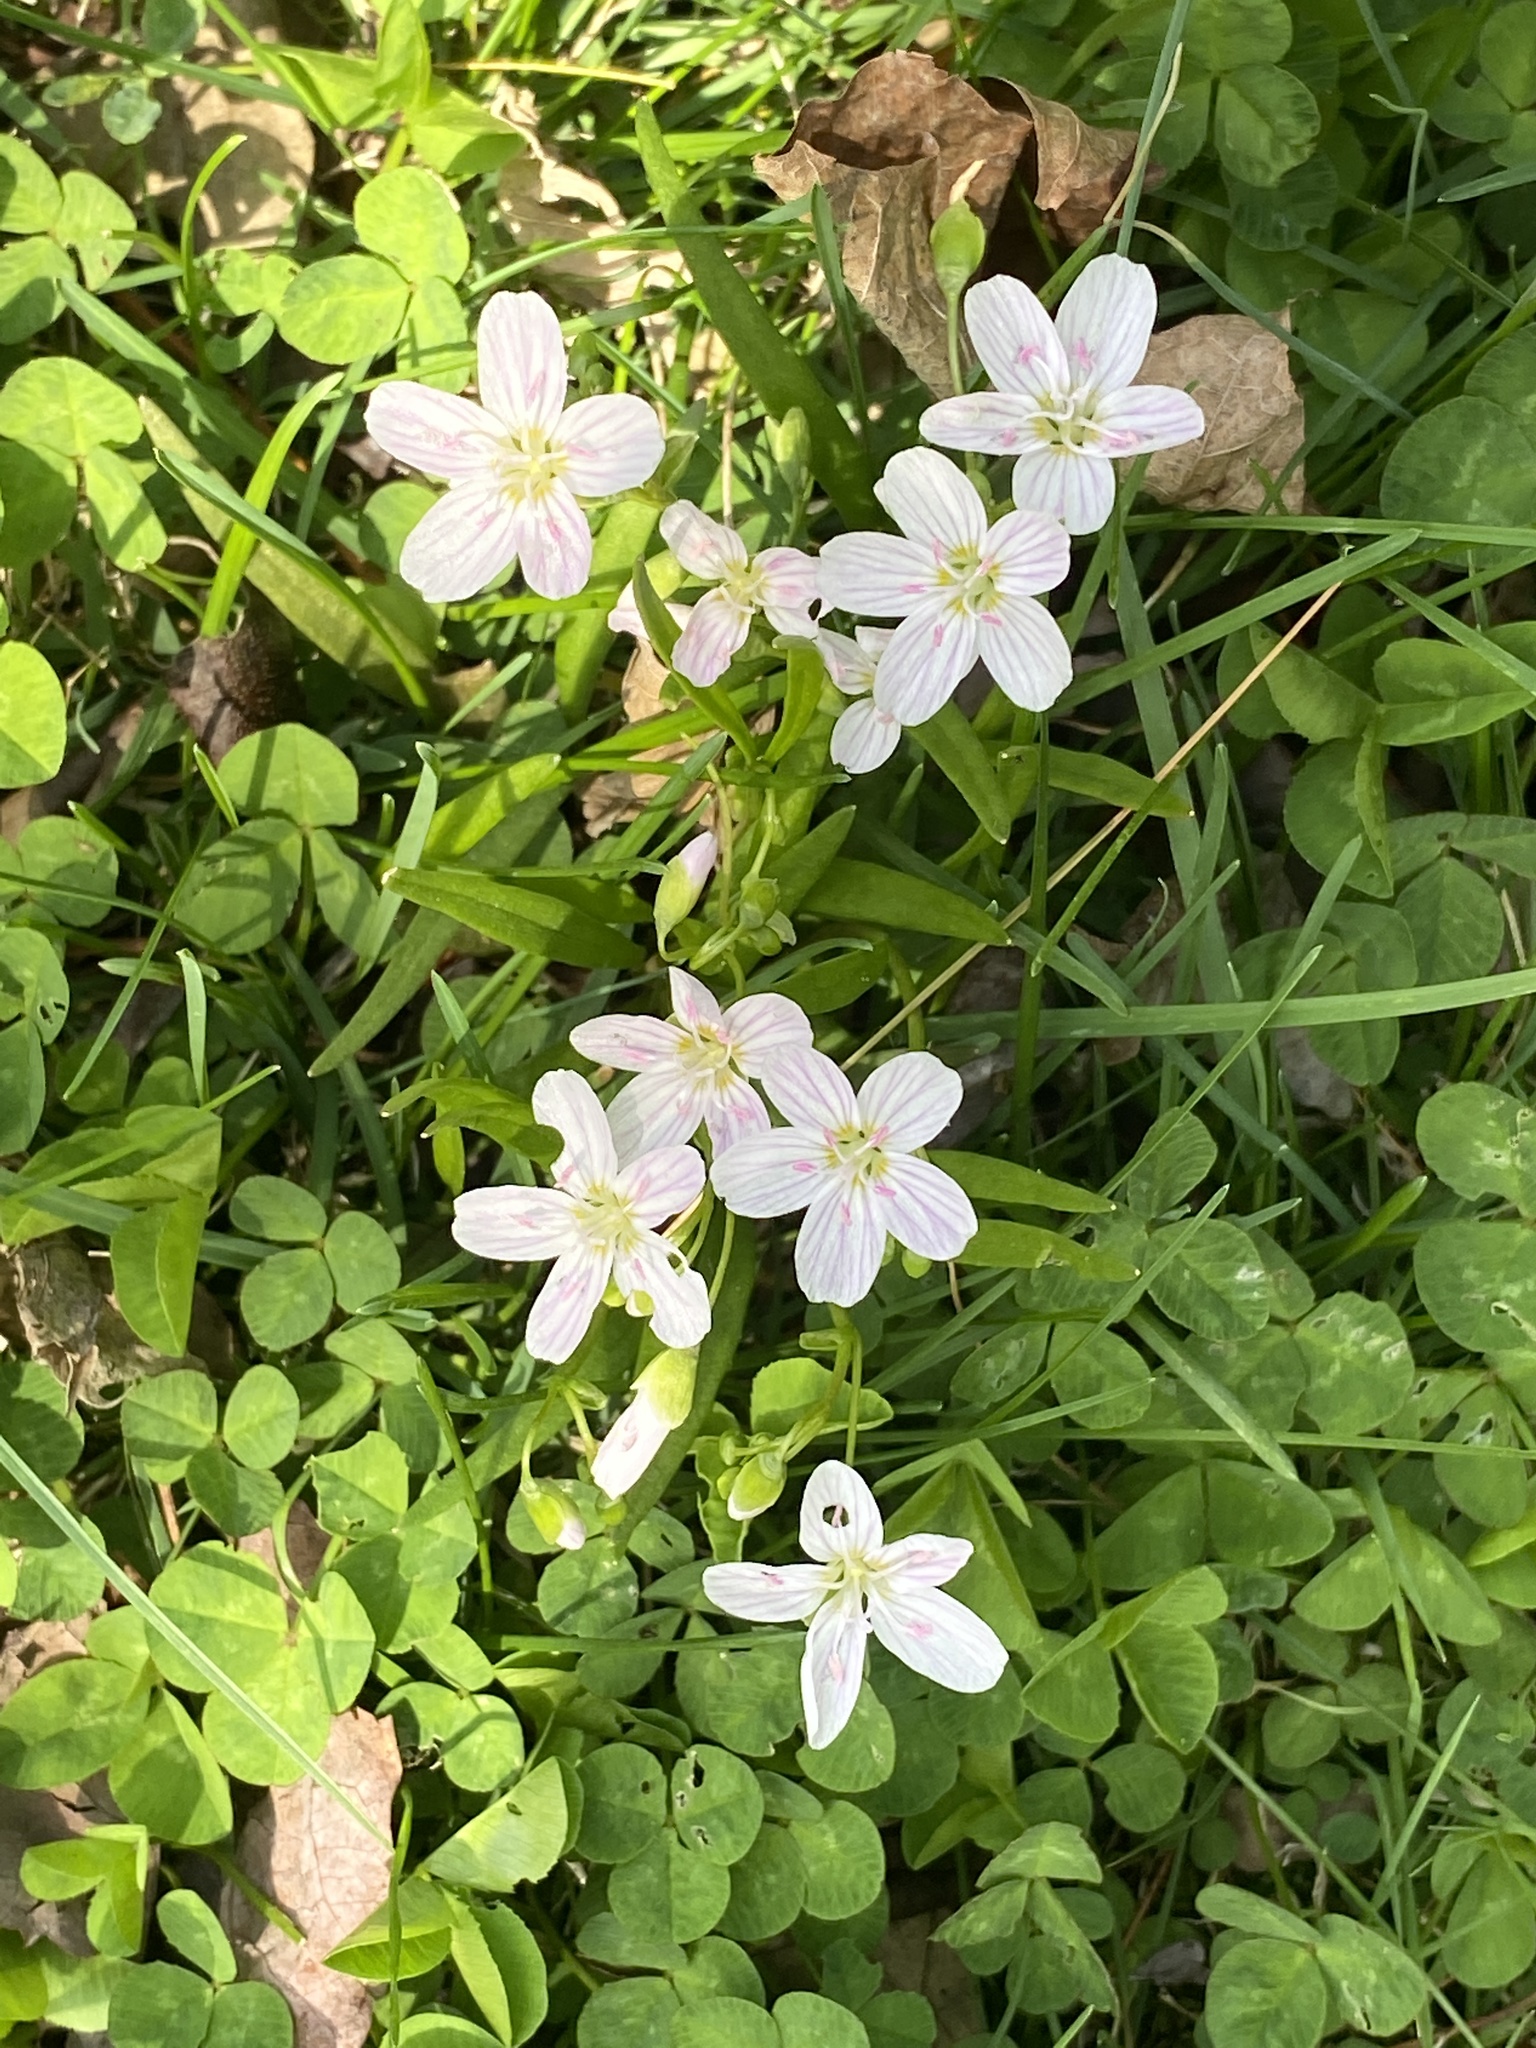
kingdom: Plantae
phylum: Tracheophyta
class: Magnoliopsida
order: Caryophyllales
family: Montiaceae
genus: Claytonia
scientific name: Claytonia virginica
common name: Virginia springbeauty
